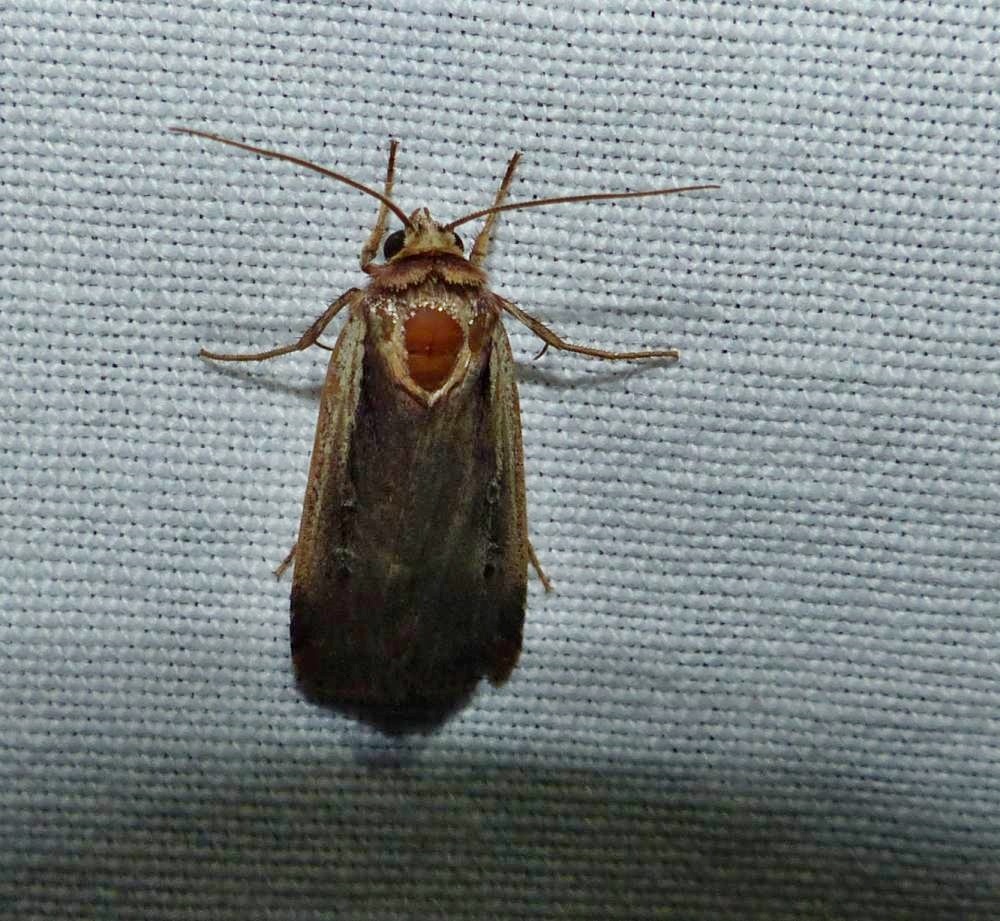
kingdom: Animalia
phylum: Arthropoda
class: Insecta
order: Lepidoptera
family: Noctuidae
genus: Ochropleura
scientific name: Ochropleura implecta
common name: Flame-shouldered dart
